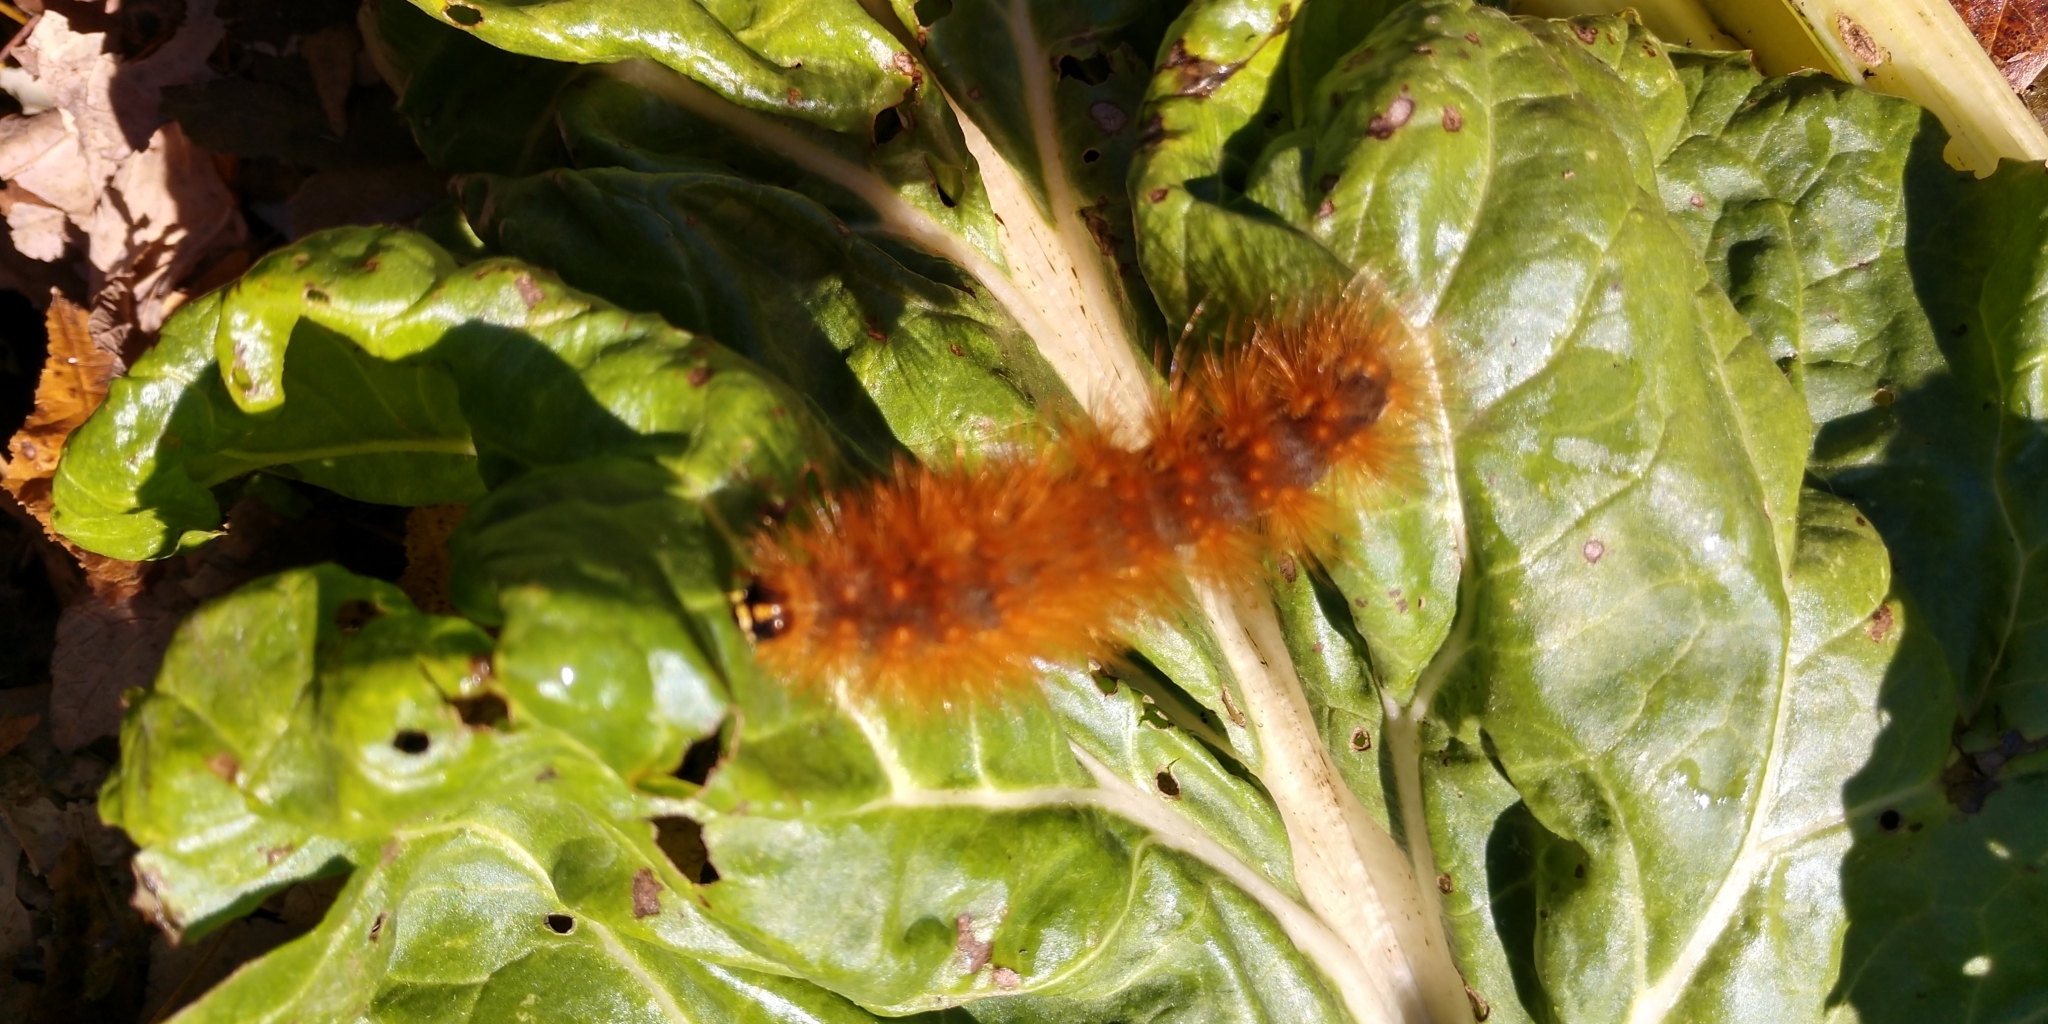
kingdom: Animalia
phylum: Arthropoda
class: Insecta
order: Lepidoptera
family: Erebidae
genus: Estigmene
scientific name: Estigmene acrea
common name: Salt marsh moth
